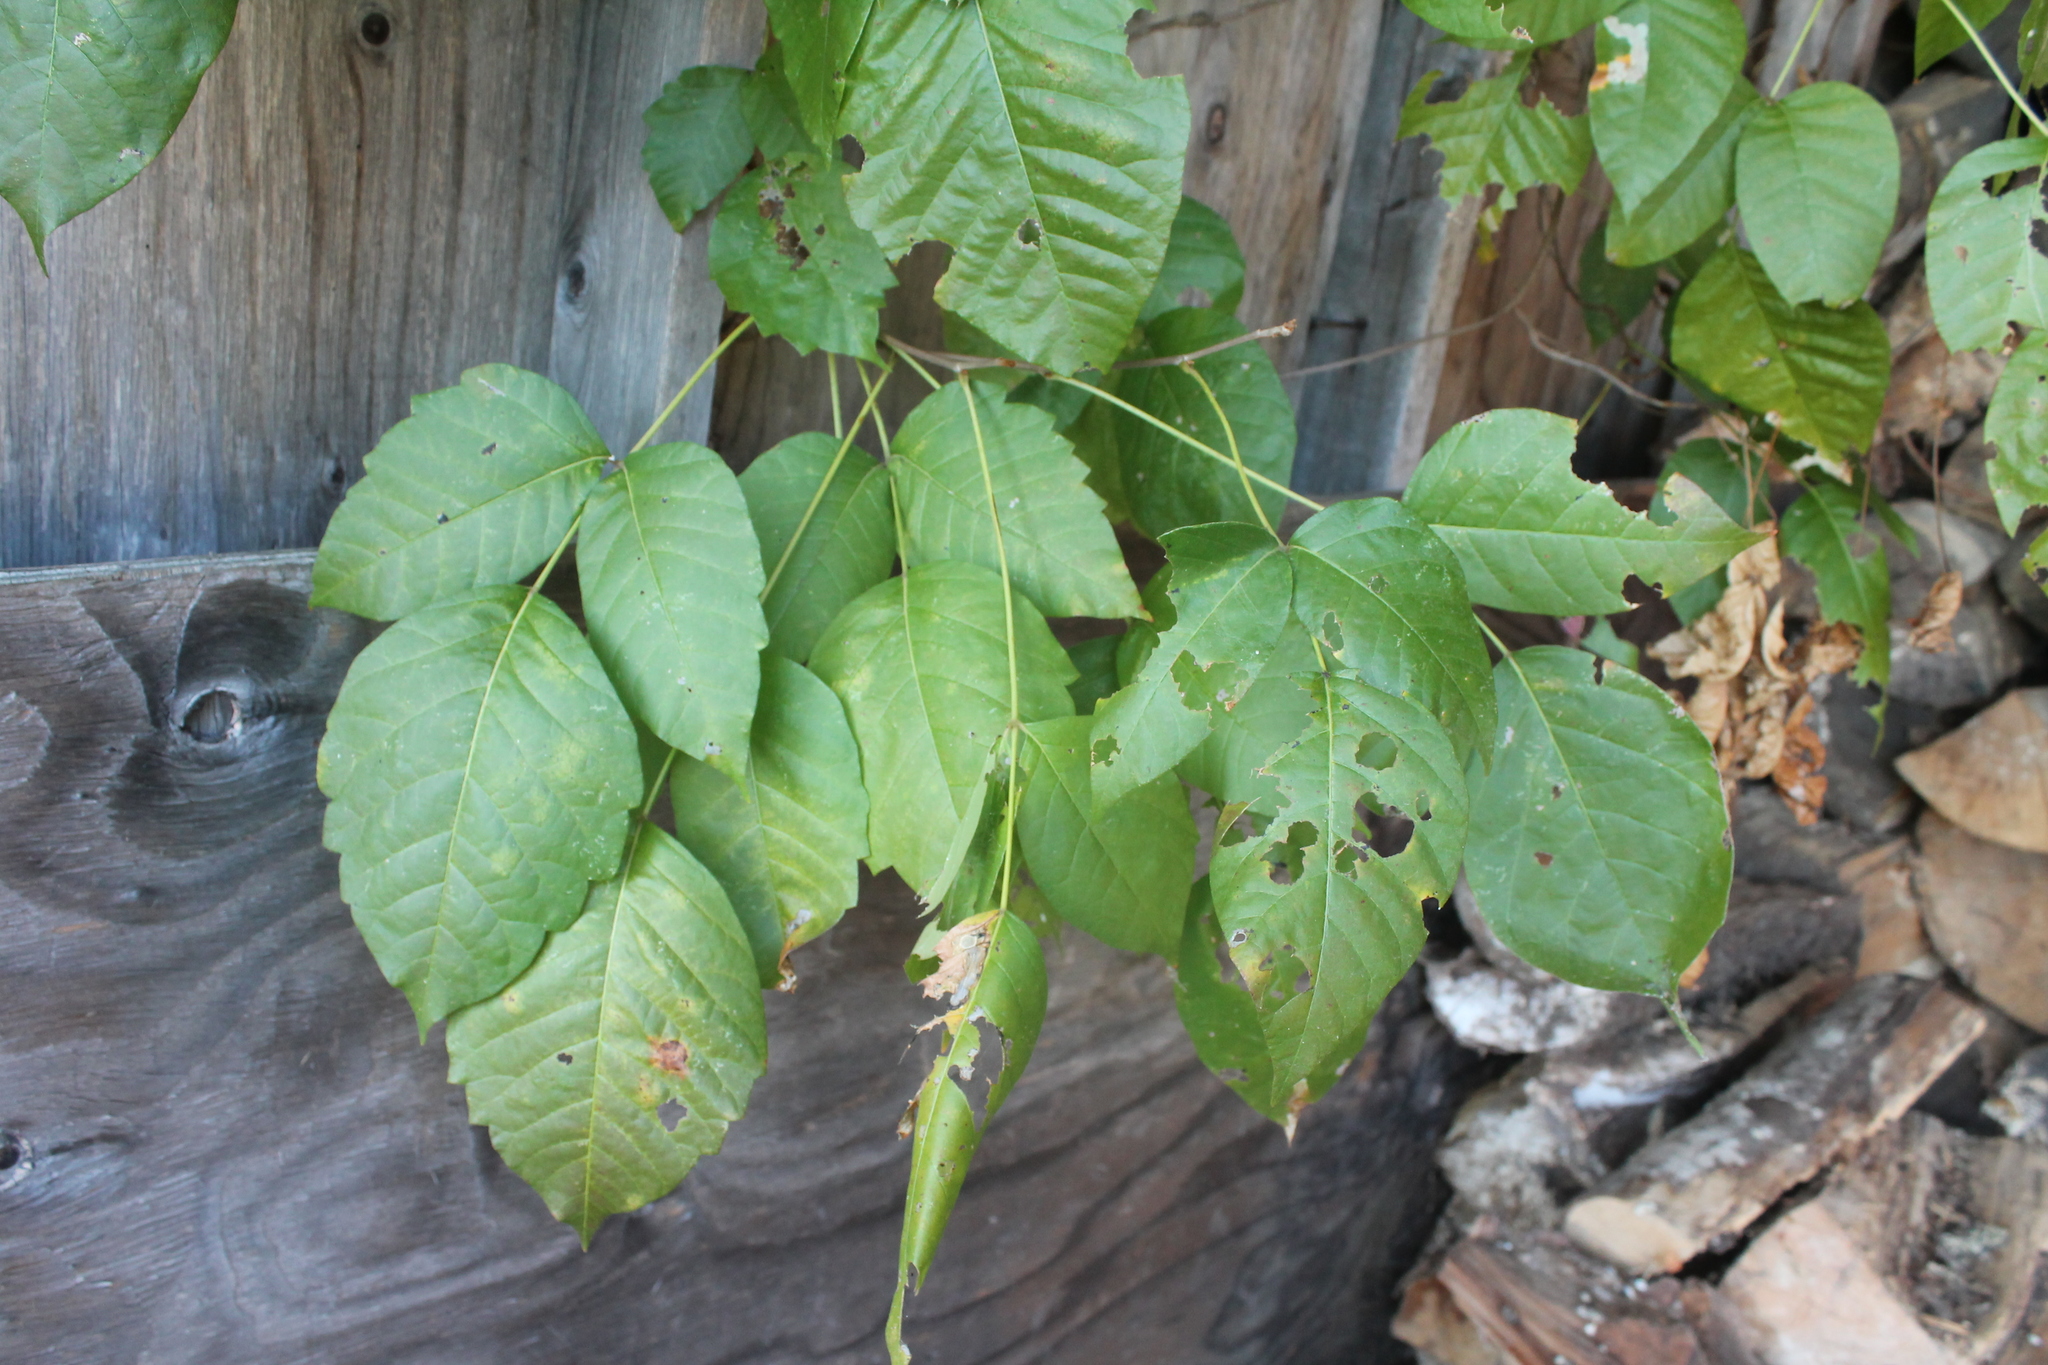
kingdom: Plantae
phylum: Tracheophyta
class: Magnoliopsida
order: Sapindales
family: Anacardiaceae
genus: Toxicodendron
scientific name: Toxicodendron radicans
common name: Poison ivy
